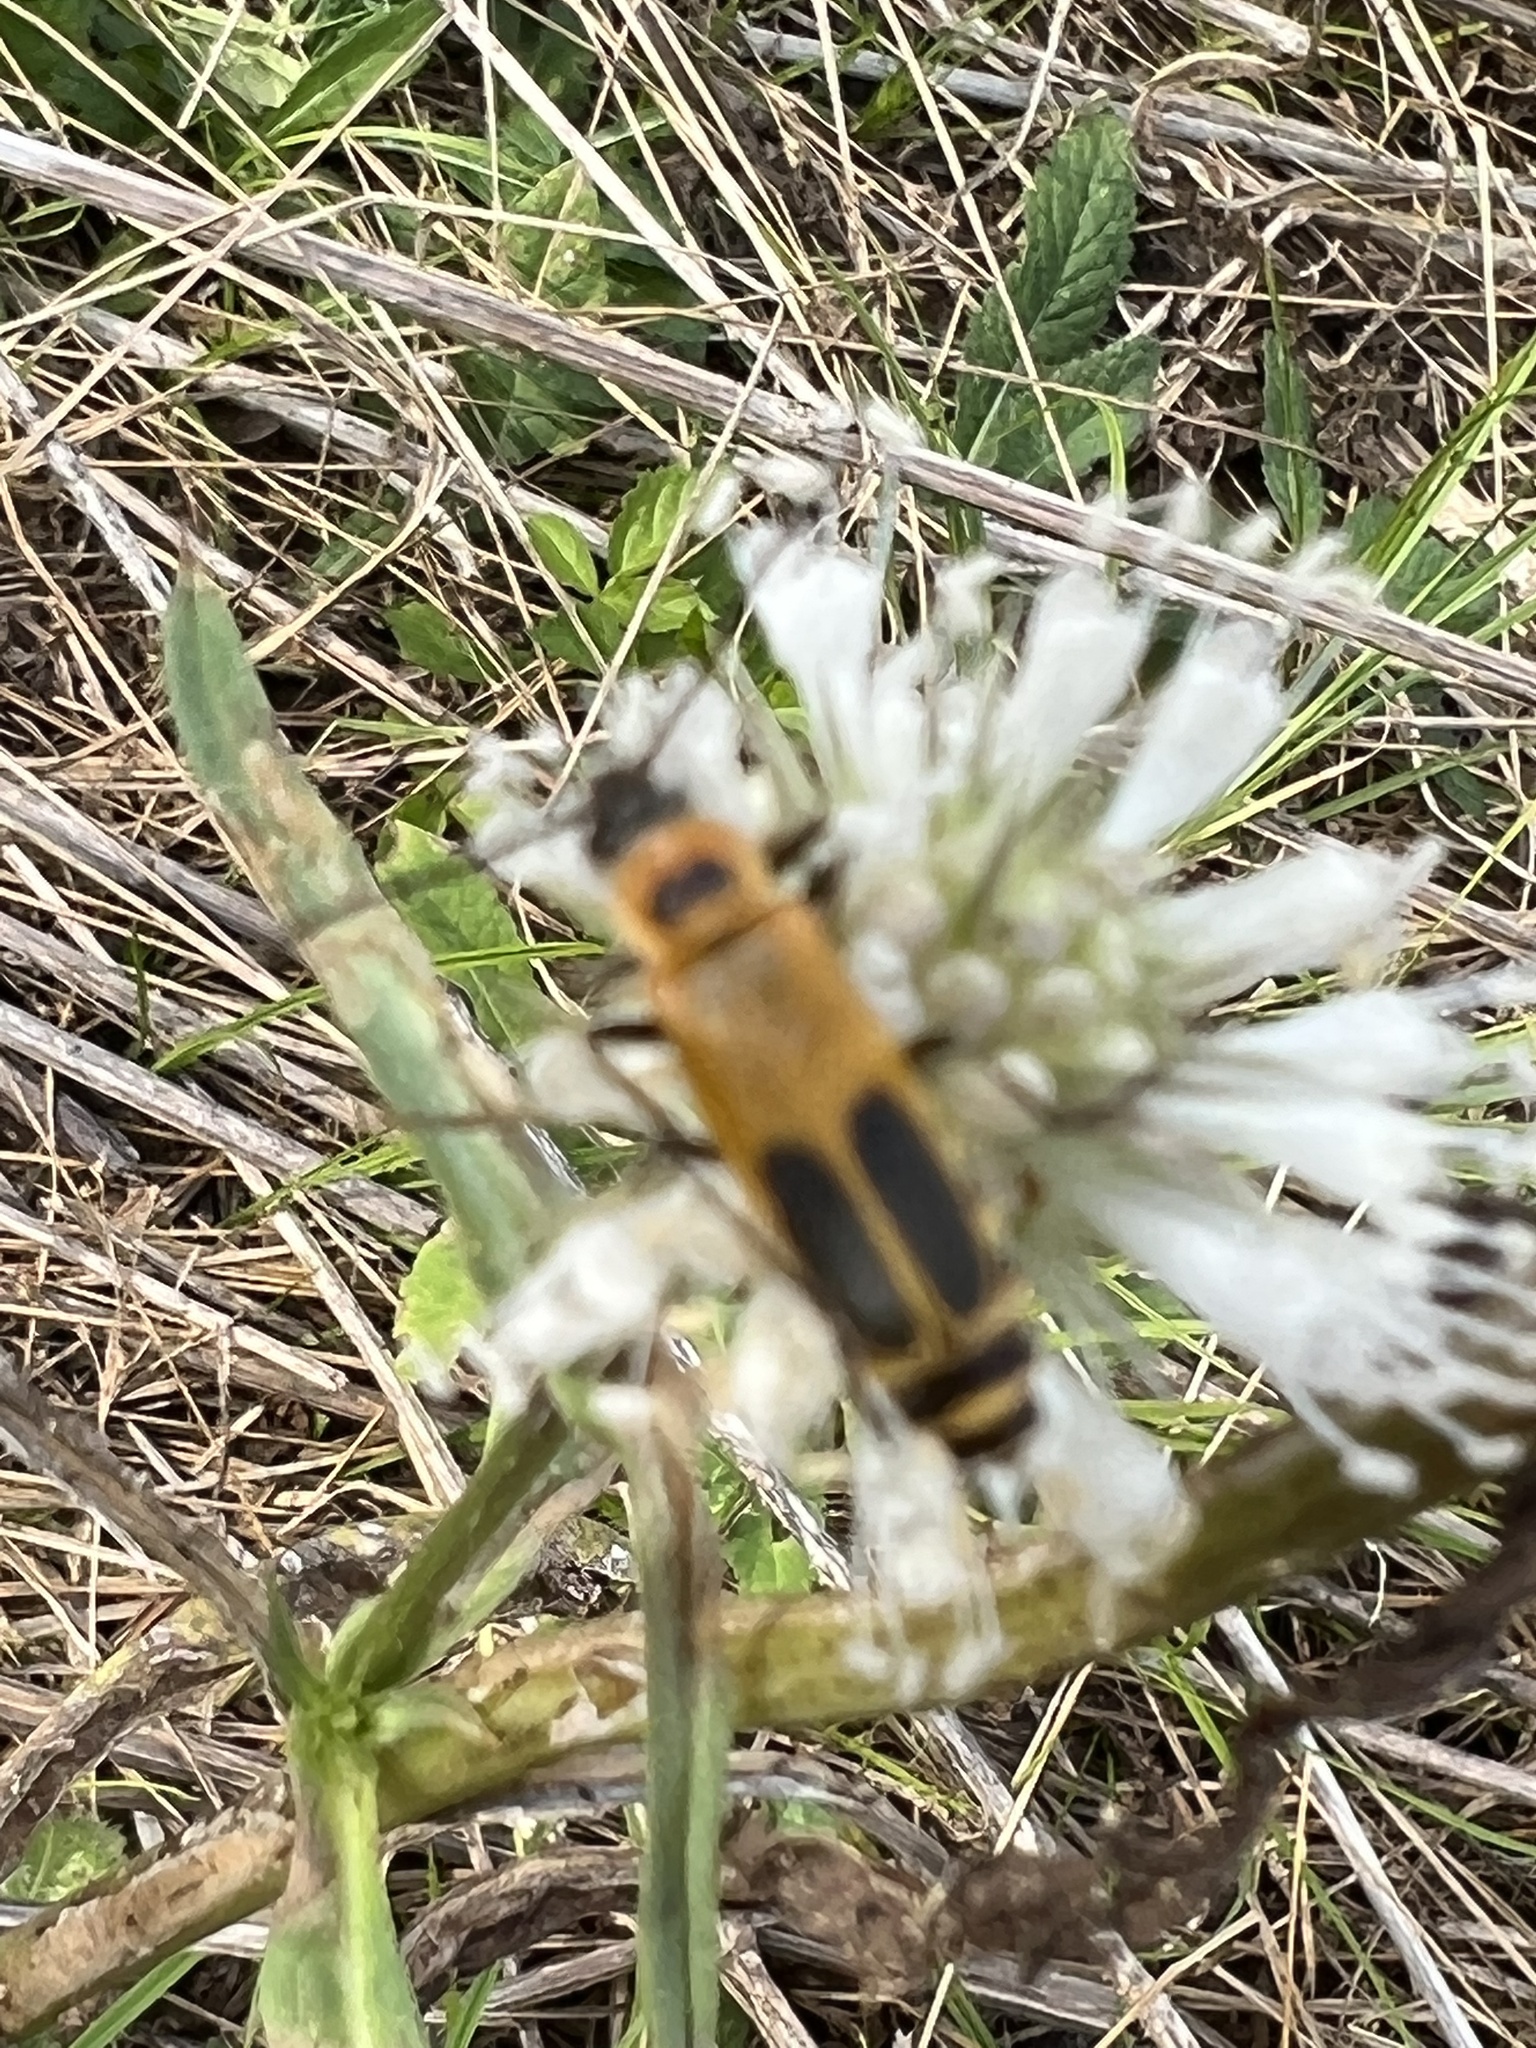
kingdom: Animalia
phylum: Arthropoda
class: Insecta
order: Coleoptera
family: Cantharidae
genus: Chauliognathus
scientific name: Chauliognathus pensylvanicus
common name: Goldenrod soldier beetle
